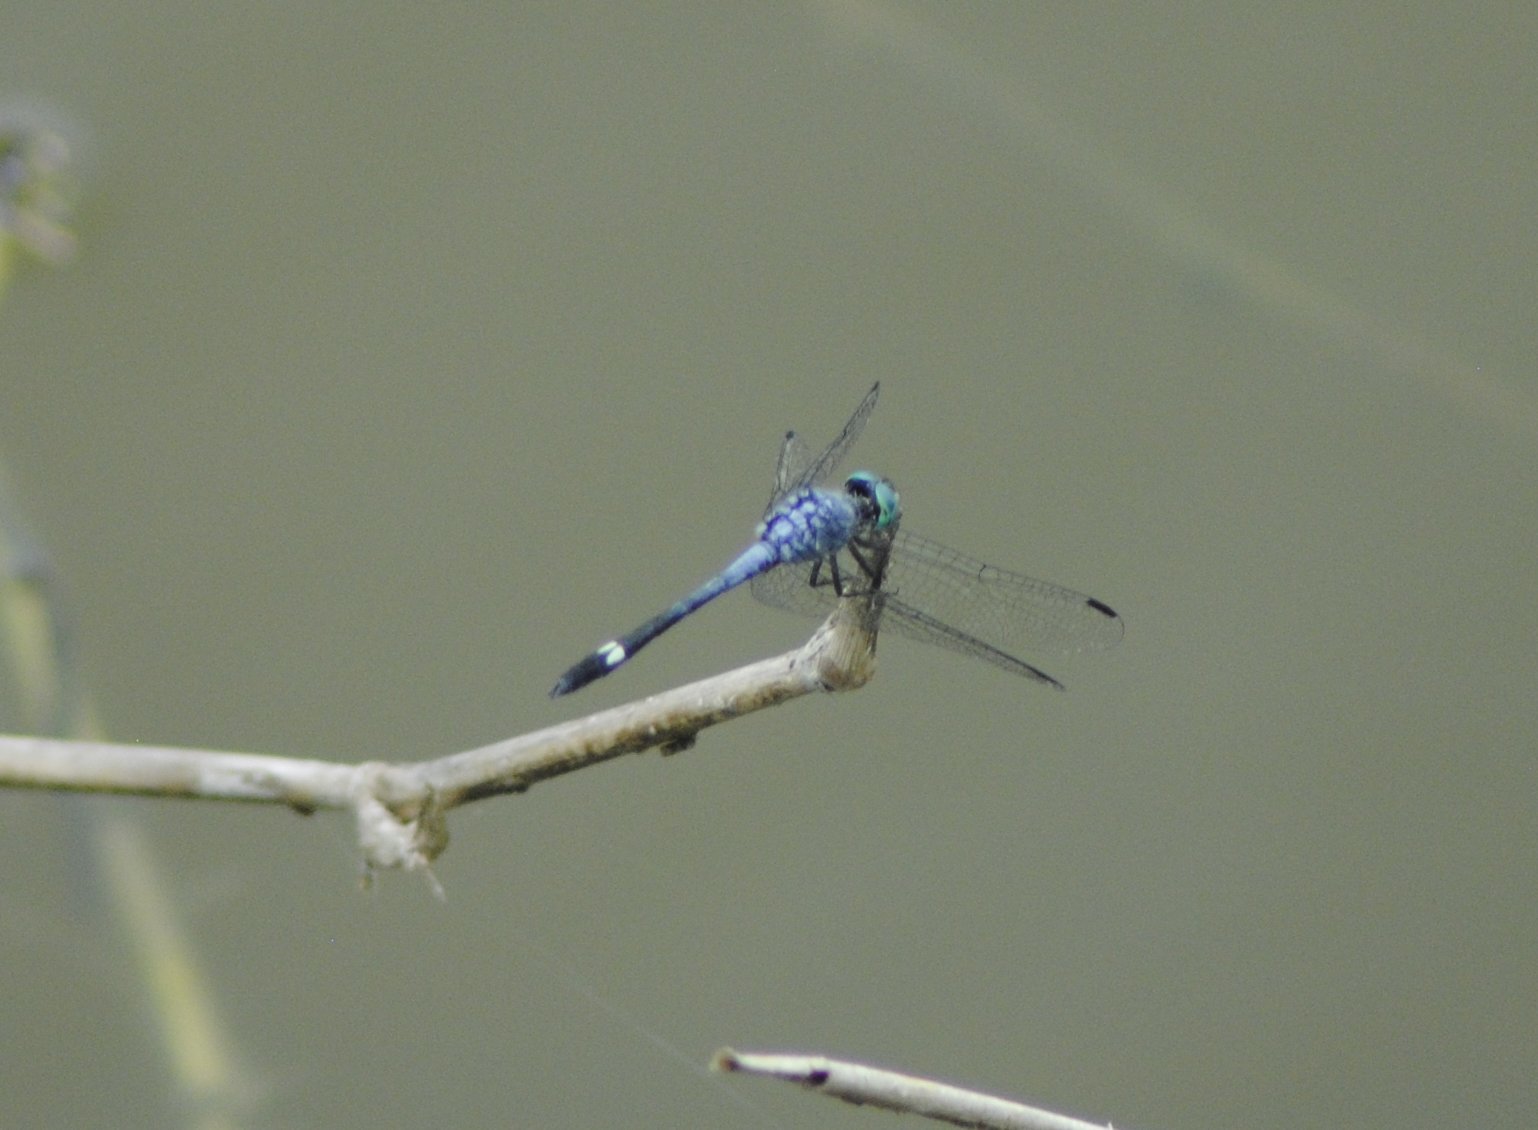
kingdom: Animalia
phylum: Arthropoda
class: Insecta
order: Odonata
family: Libellulidae
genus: Micrathyria
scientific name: Micrathyria aequalis
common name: Spot-tailed dasher
